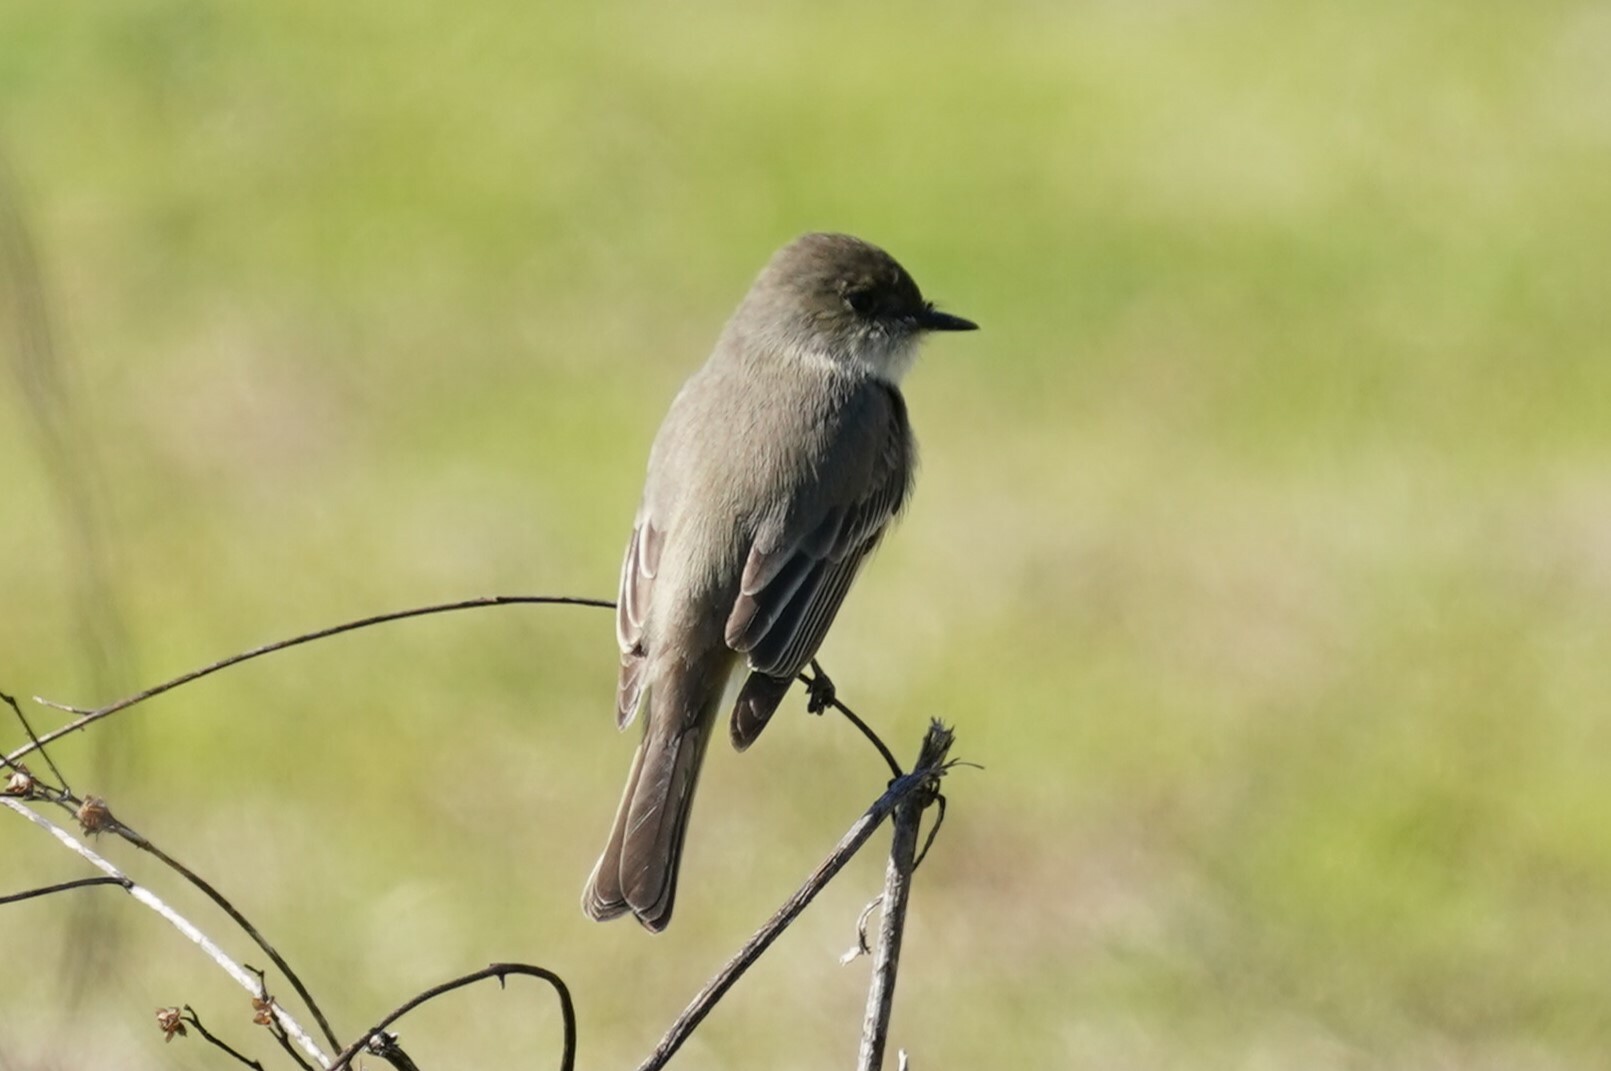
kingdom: Animalia
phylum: Chordata
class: Aves
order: Passeriformes
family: Tyrannidae
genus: Sayornis
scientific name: Sayornis phoebe
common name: Eastern phoebe
